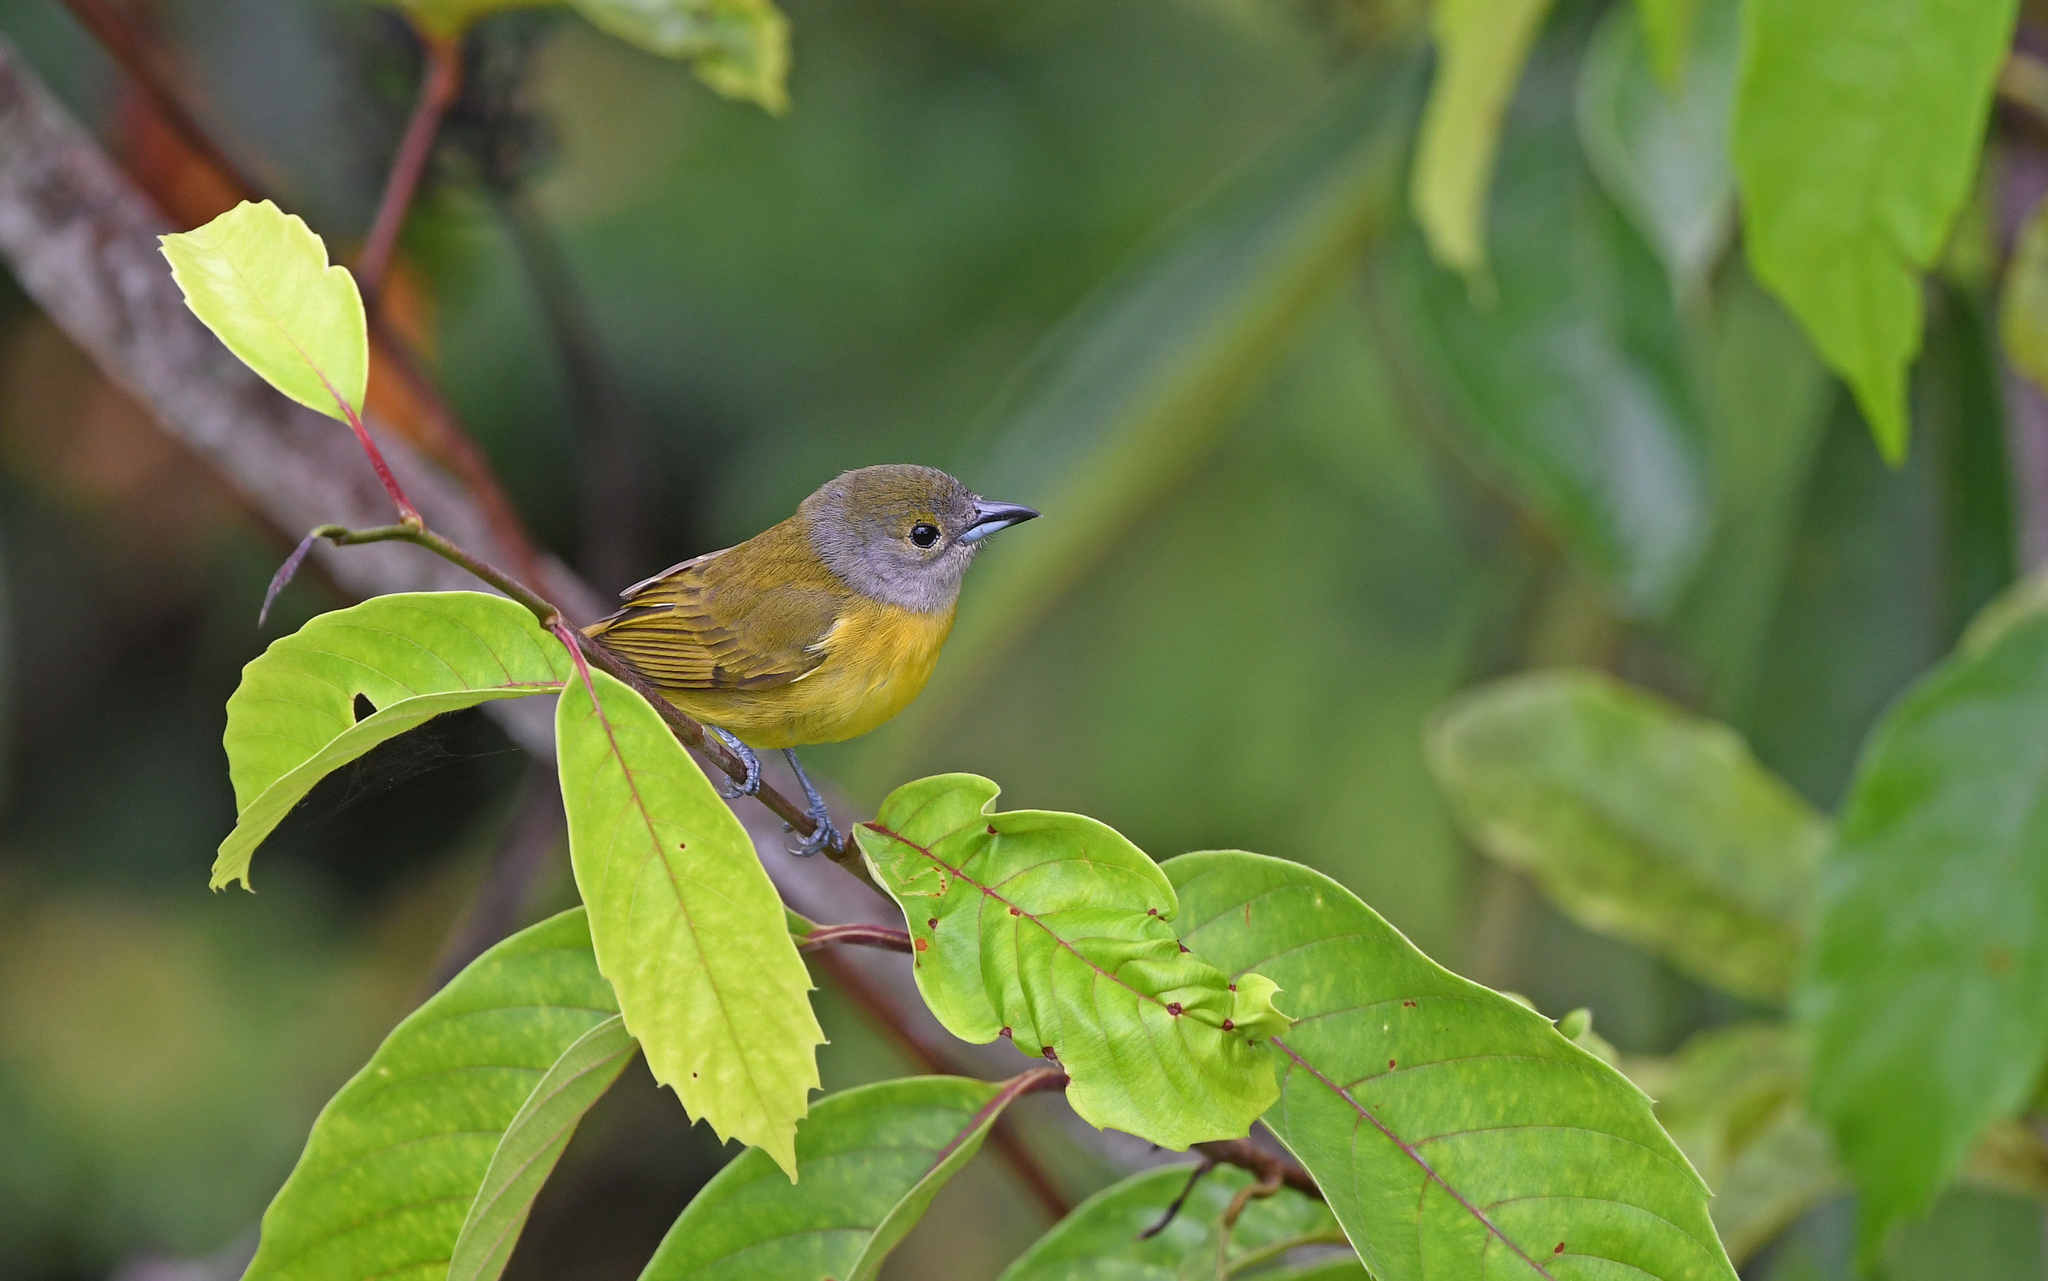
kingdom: Animalia
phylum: Chordata
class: Aves
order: Passeriformes
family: Thraupidae
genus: Loriotus
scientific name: Loriotus luctuosus
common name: White-shouldered tanager
